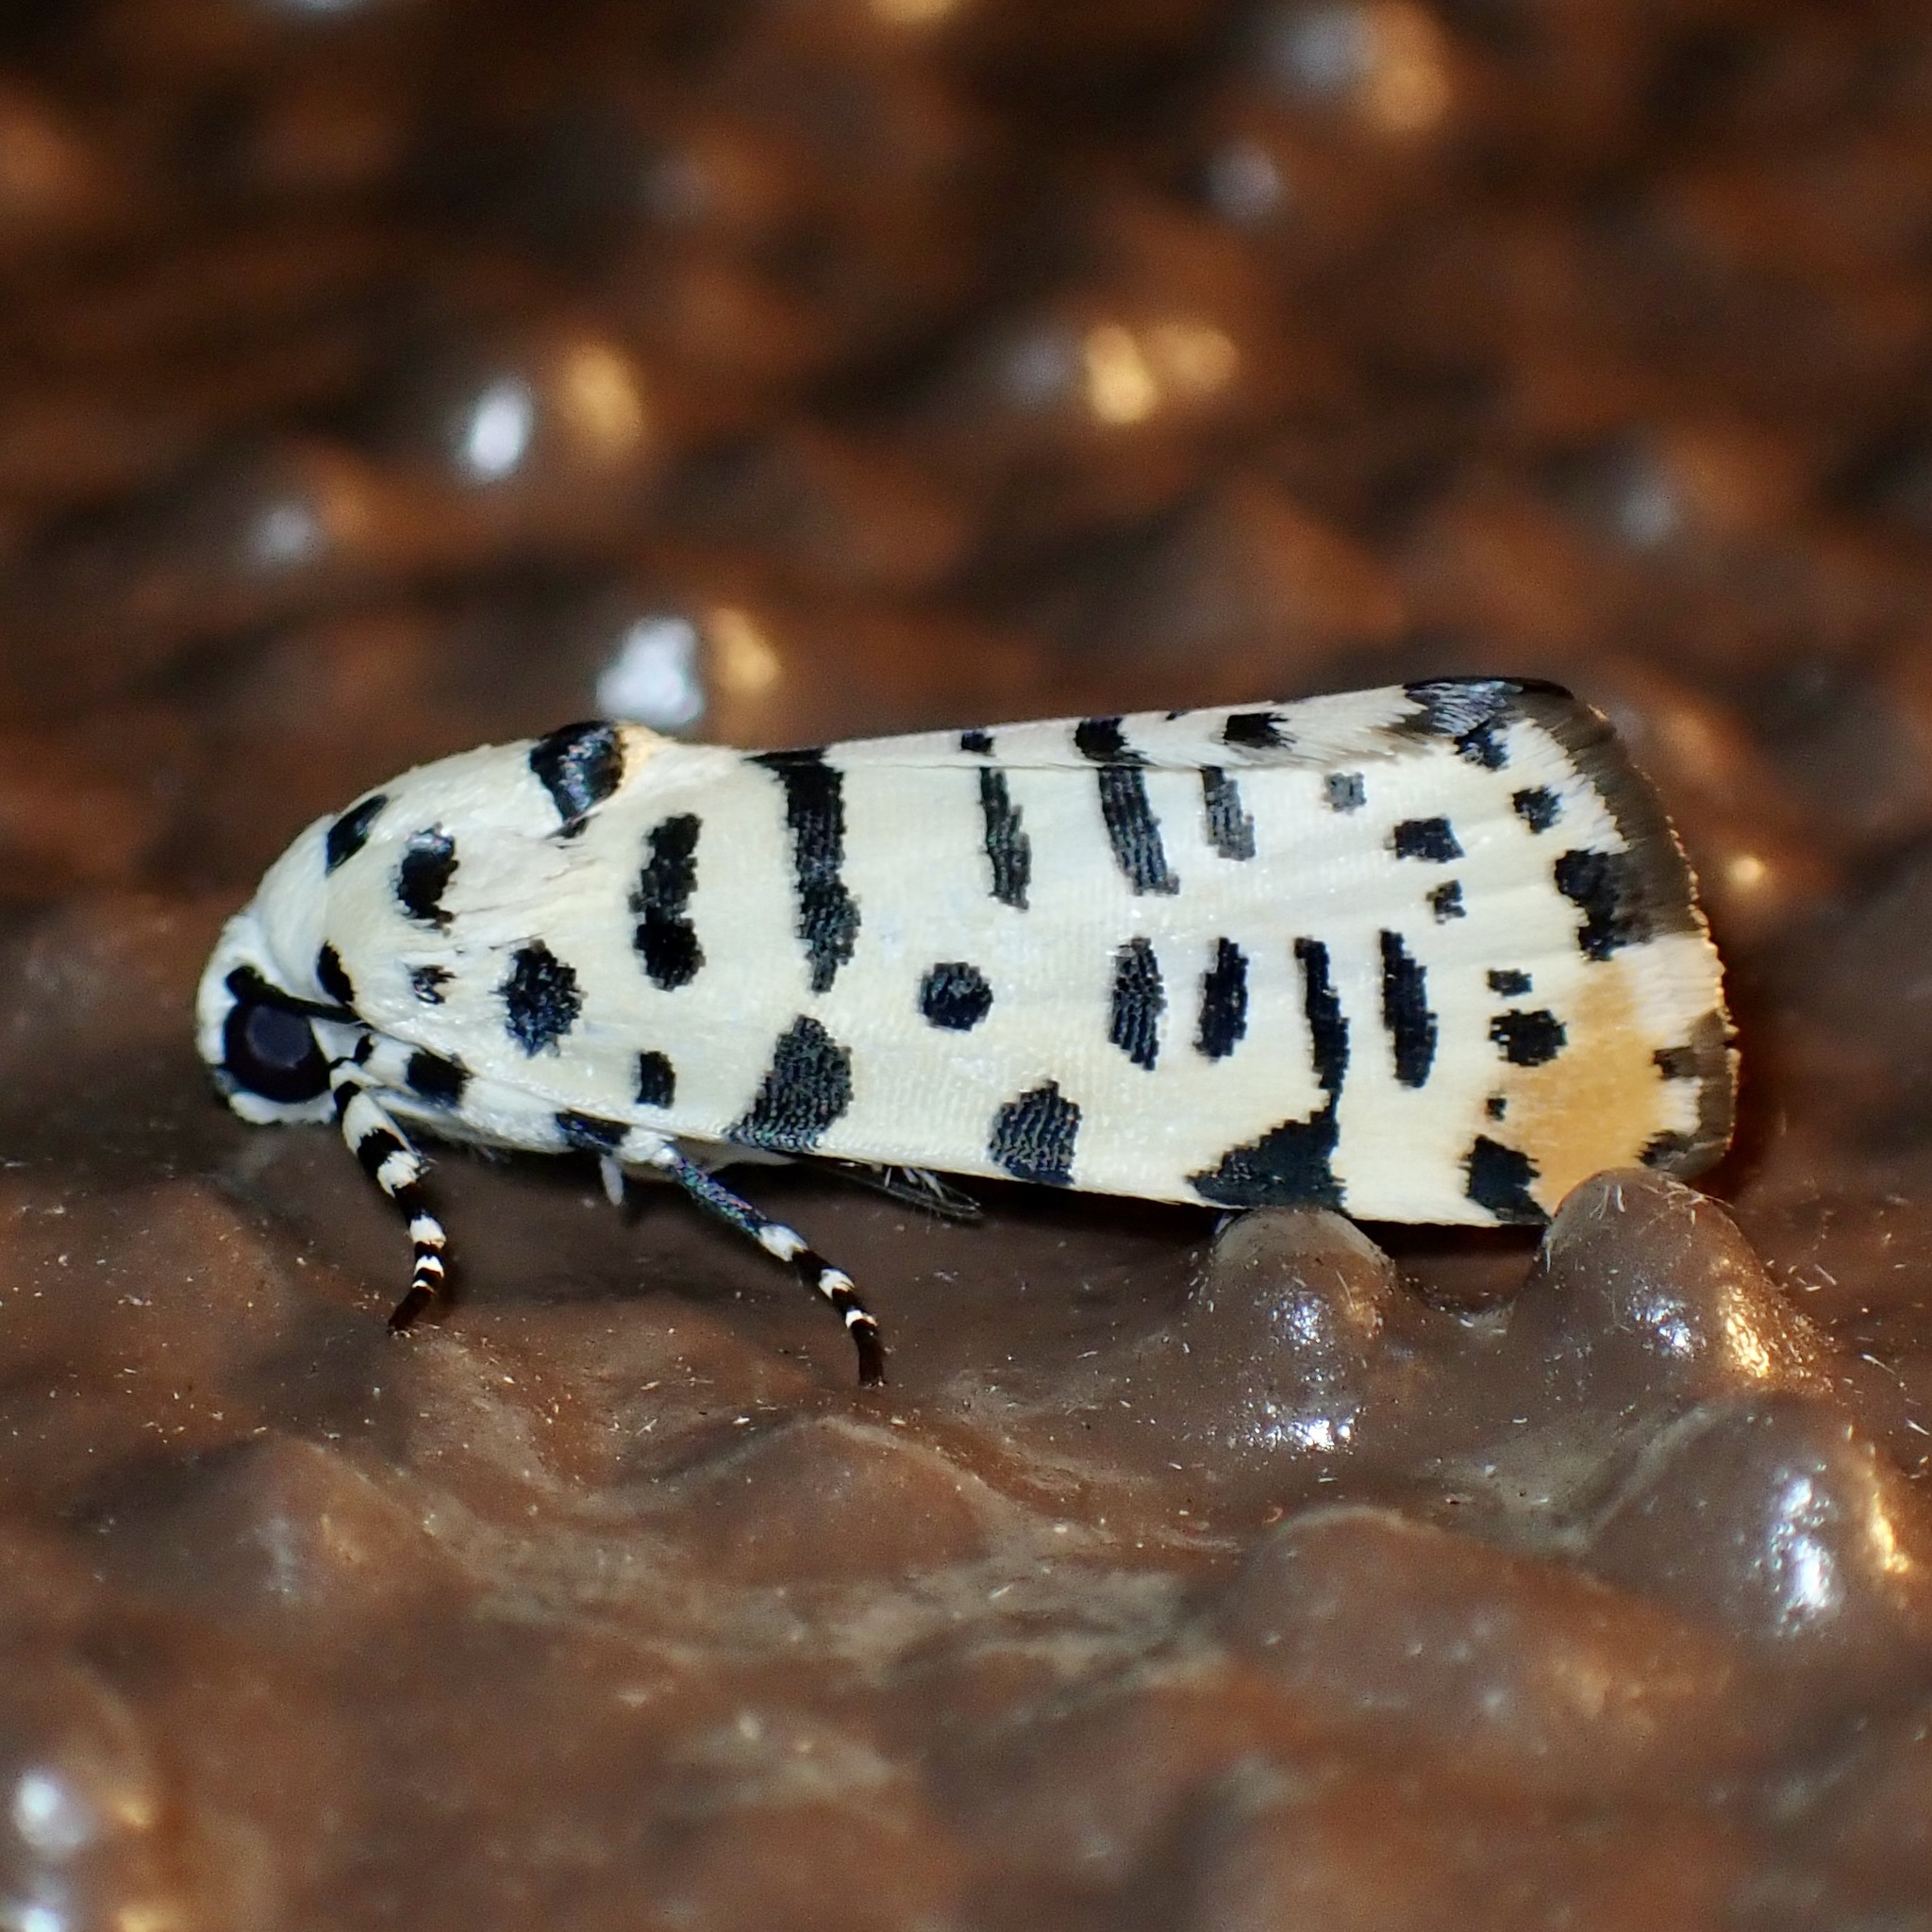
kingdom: Animalia
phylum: Arthropoda
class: Insecta
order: Lepidoptera
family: Noctuidae
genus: Acontia
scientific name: Acontia idella
